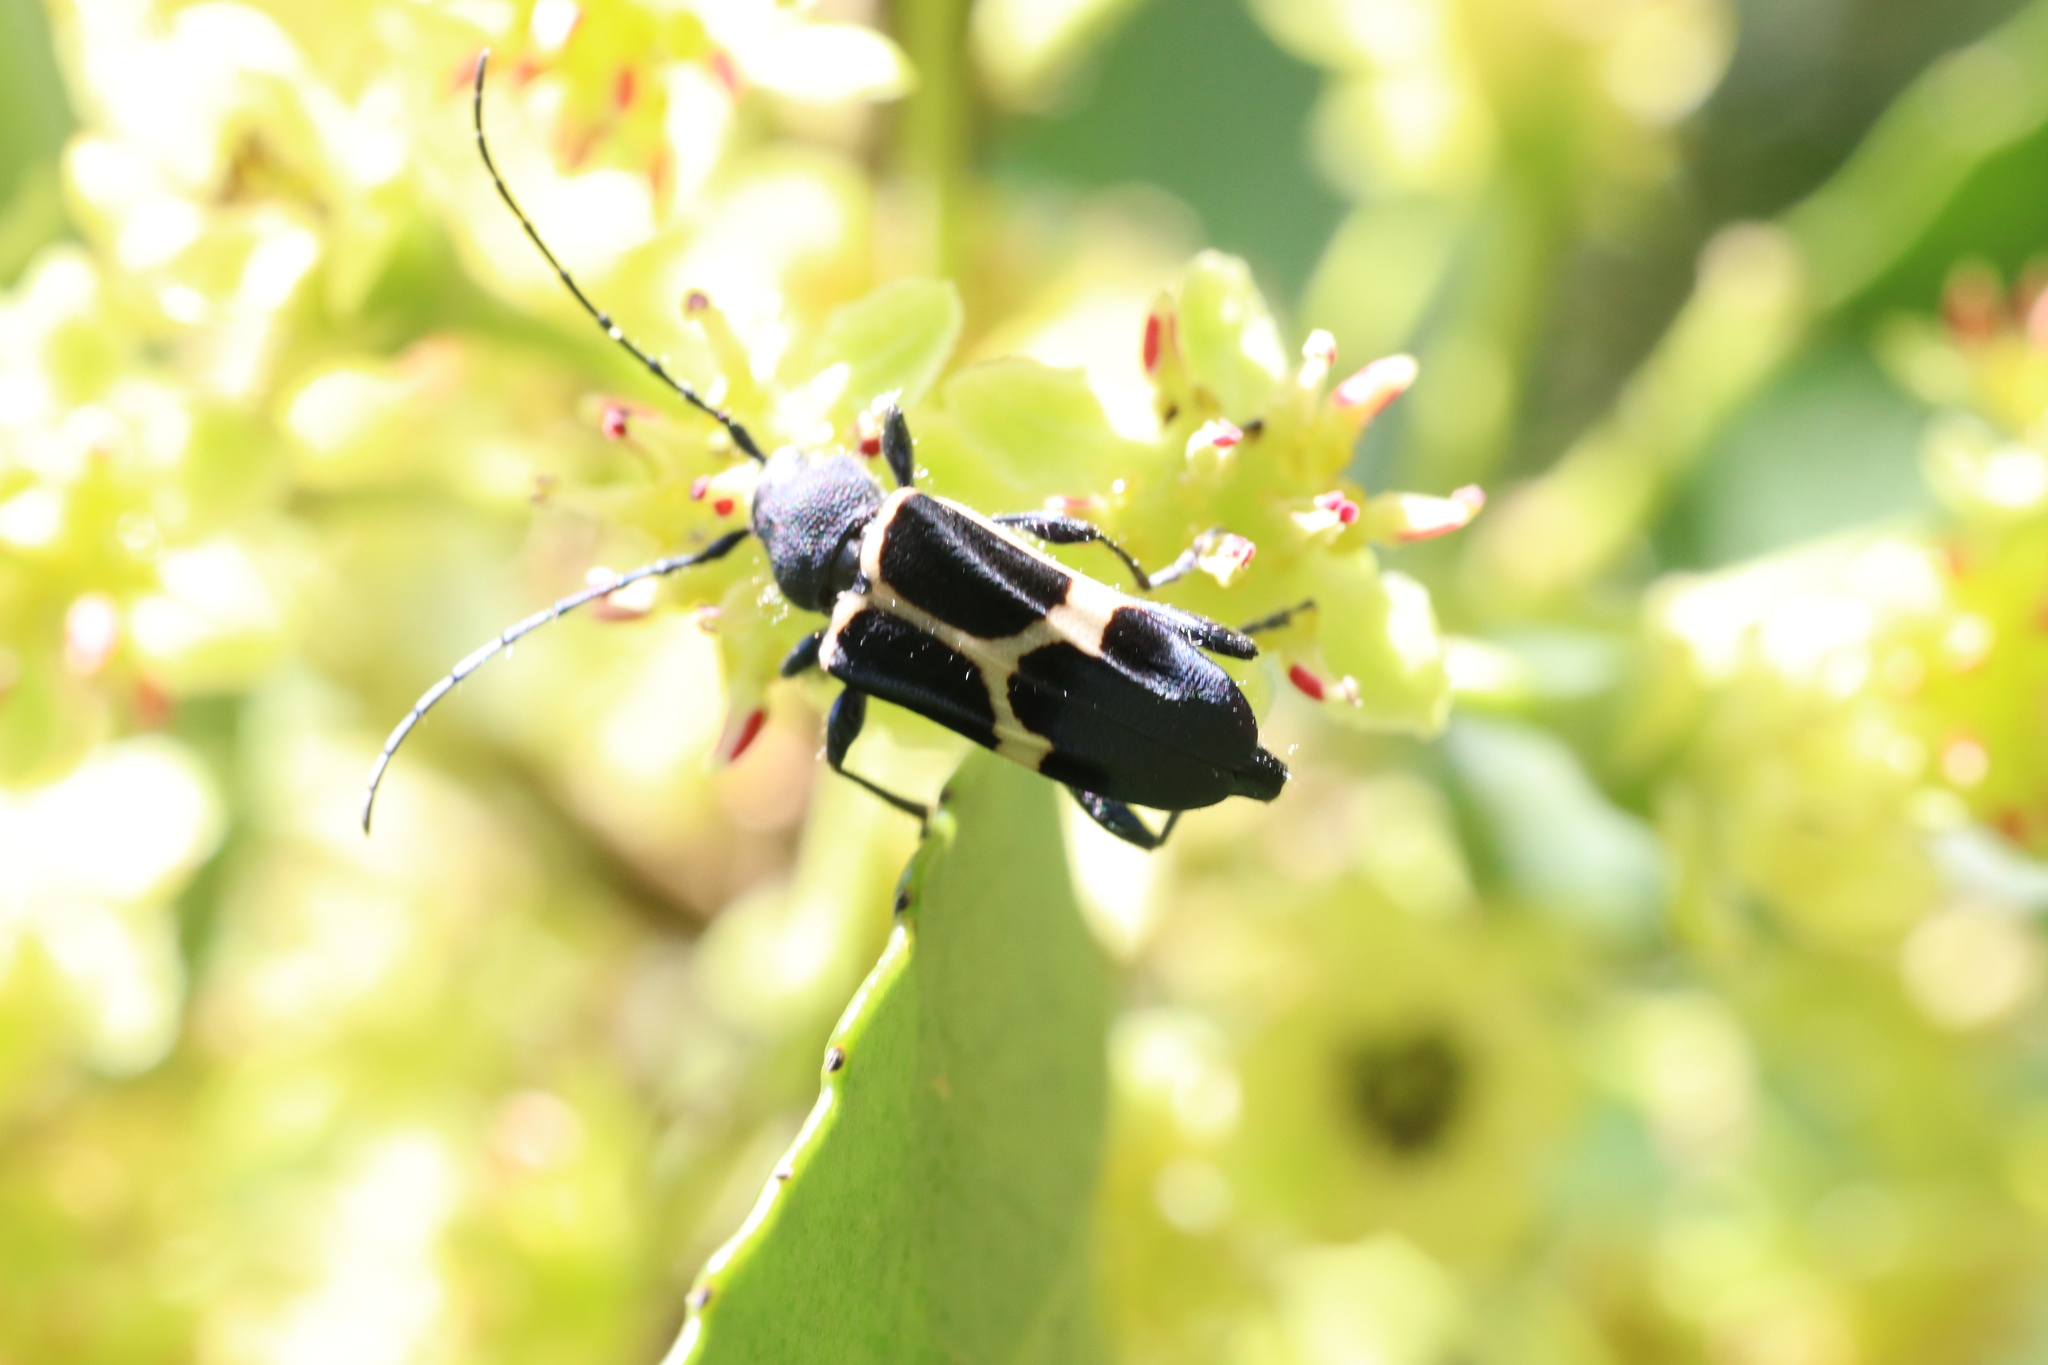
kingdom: Animalia
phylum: Arthropoda
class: Insecta
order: Coleoptera
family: Cerambycidae
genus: Calydon
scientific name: Calydon submetallicum
